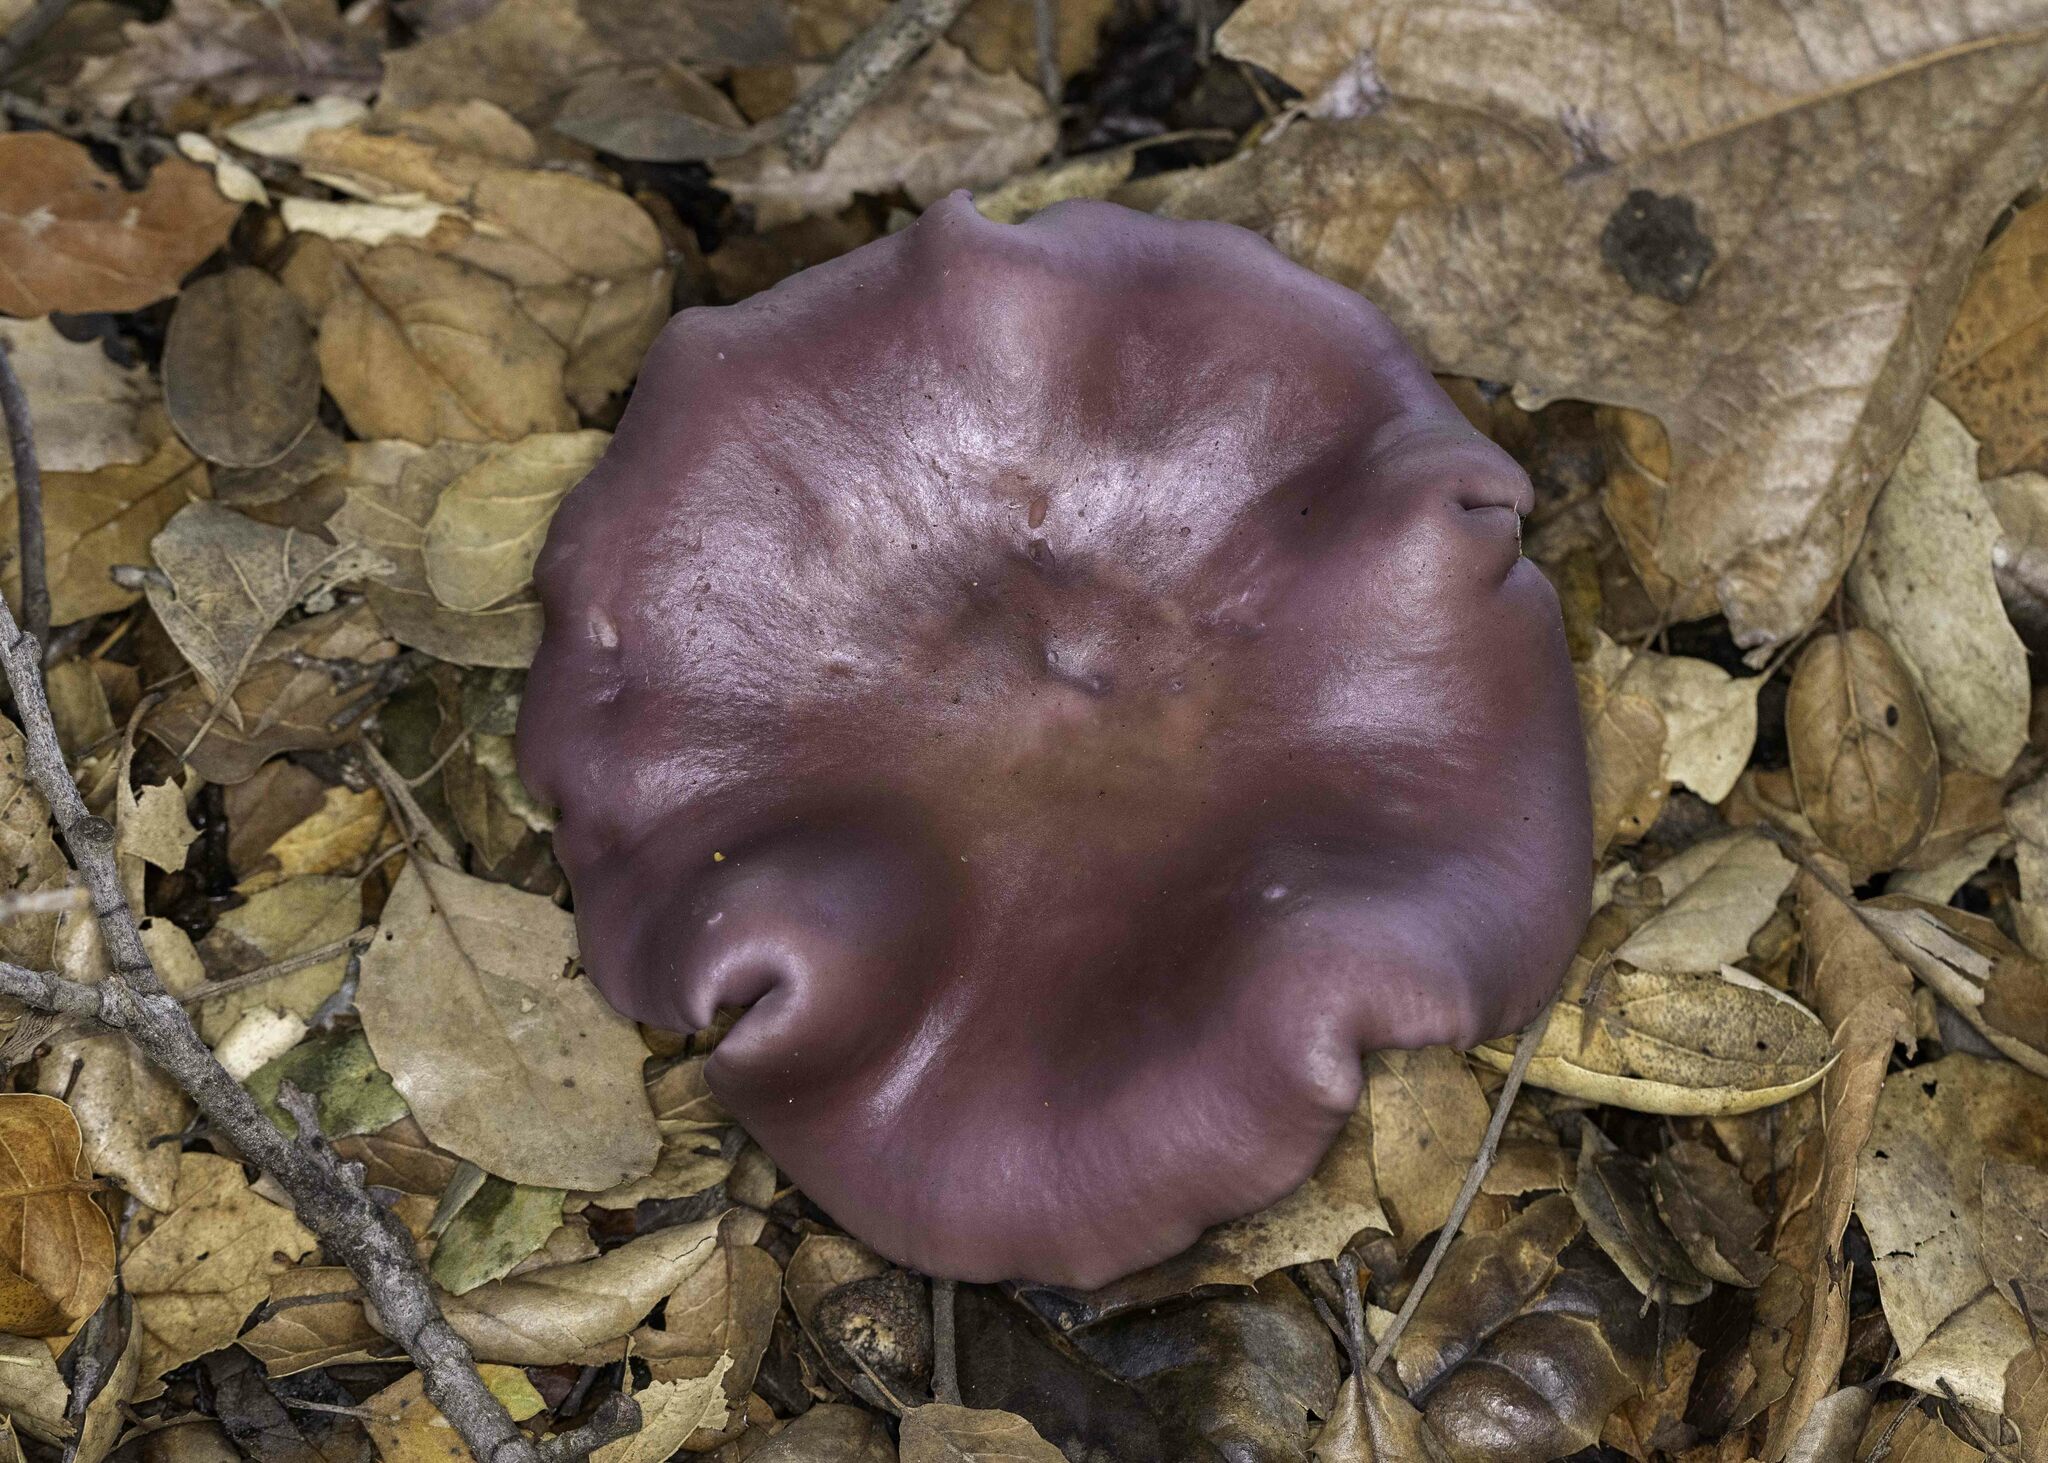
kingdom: Fungi
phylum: Basidiomycota
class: Agaricomycetes
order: Agaricales
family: Tricholomataceae
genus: Collybia
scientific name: Collybia
